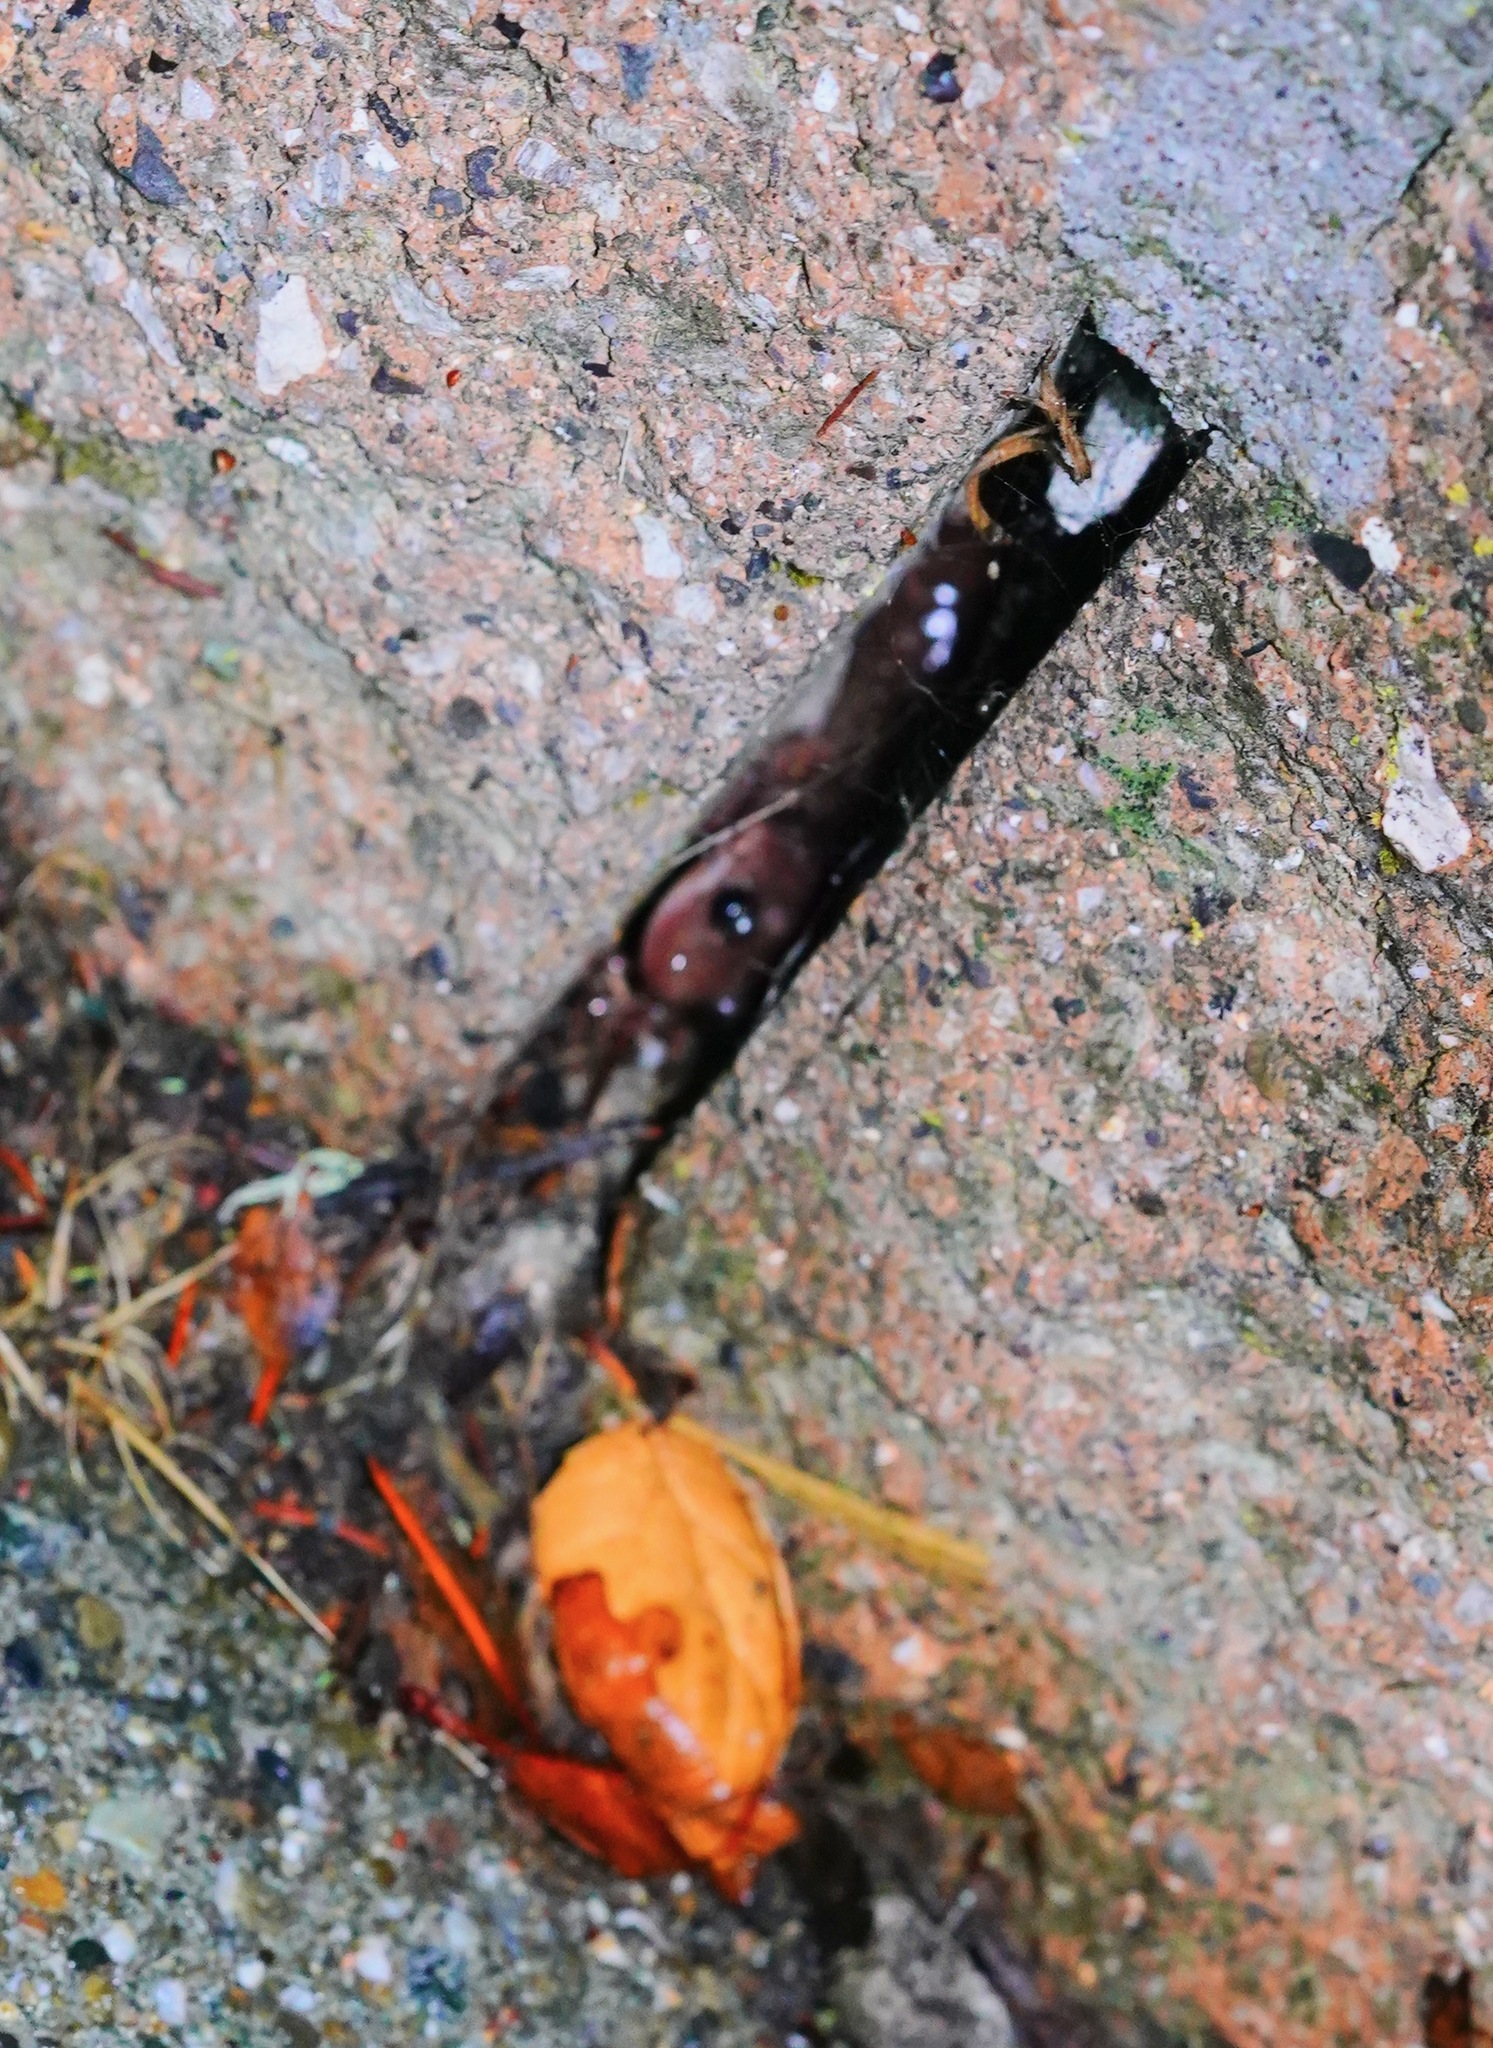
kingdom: Animalia
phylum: Chordata
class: Amphibia
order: Caudata
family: Plethodontidae
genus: Aneides
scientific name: Aneides lugubris
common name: Arboreal salamander
